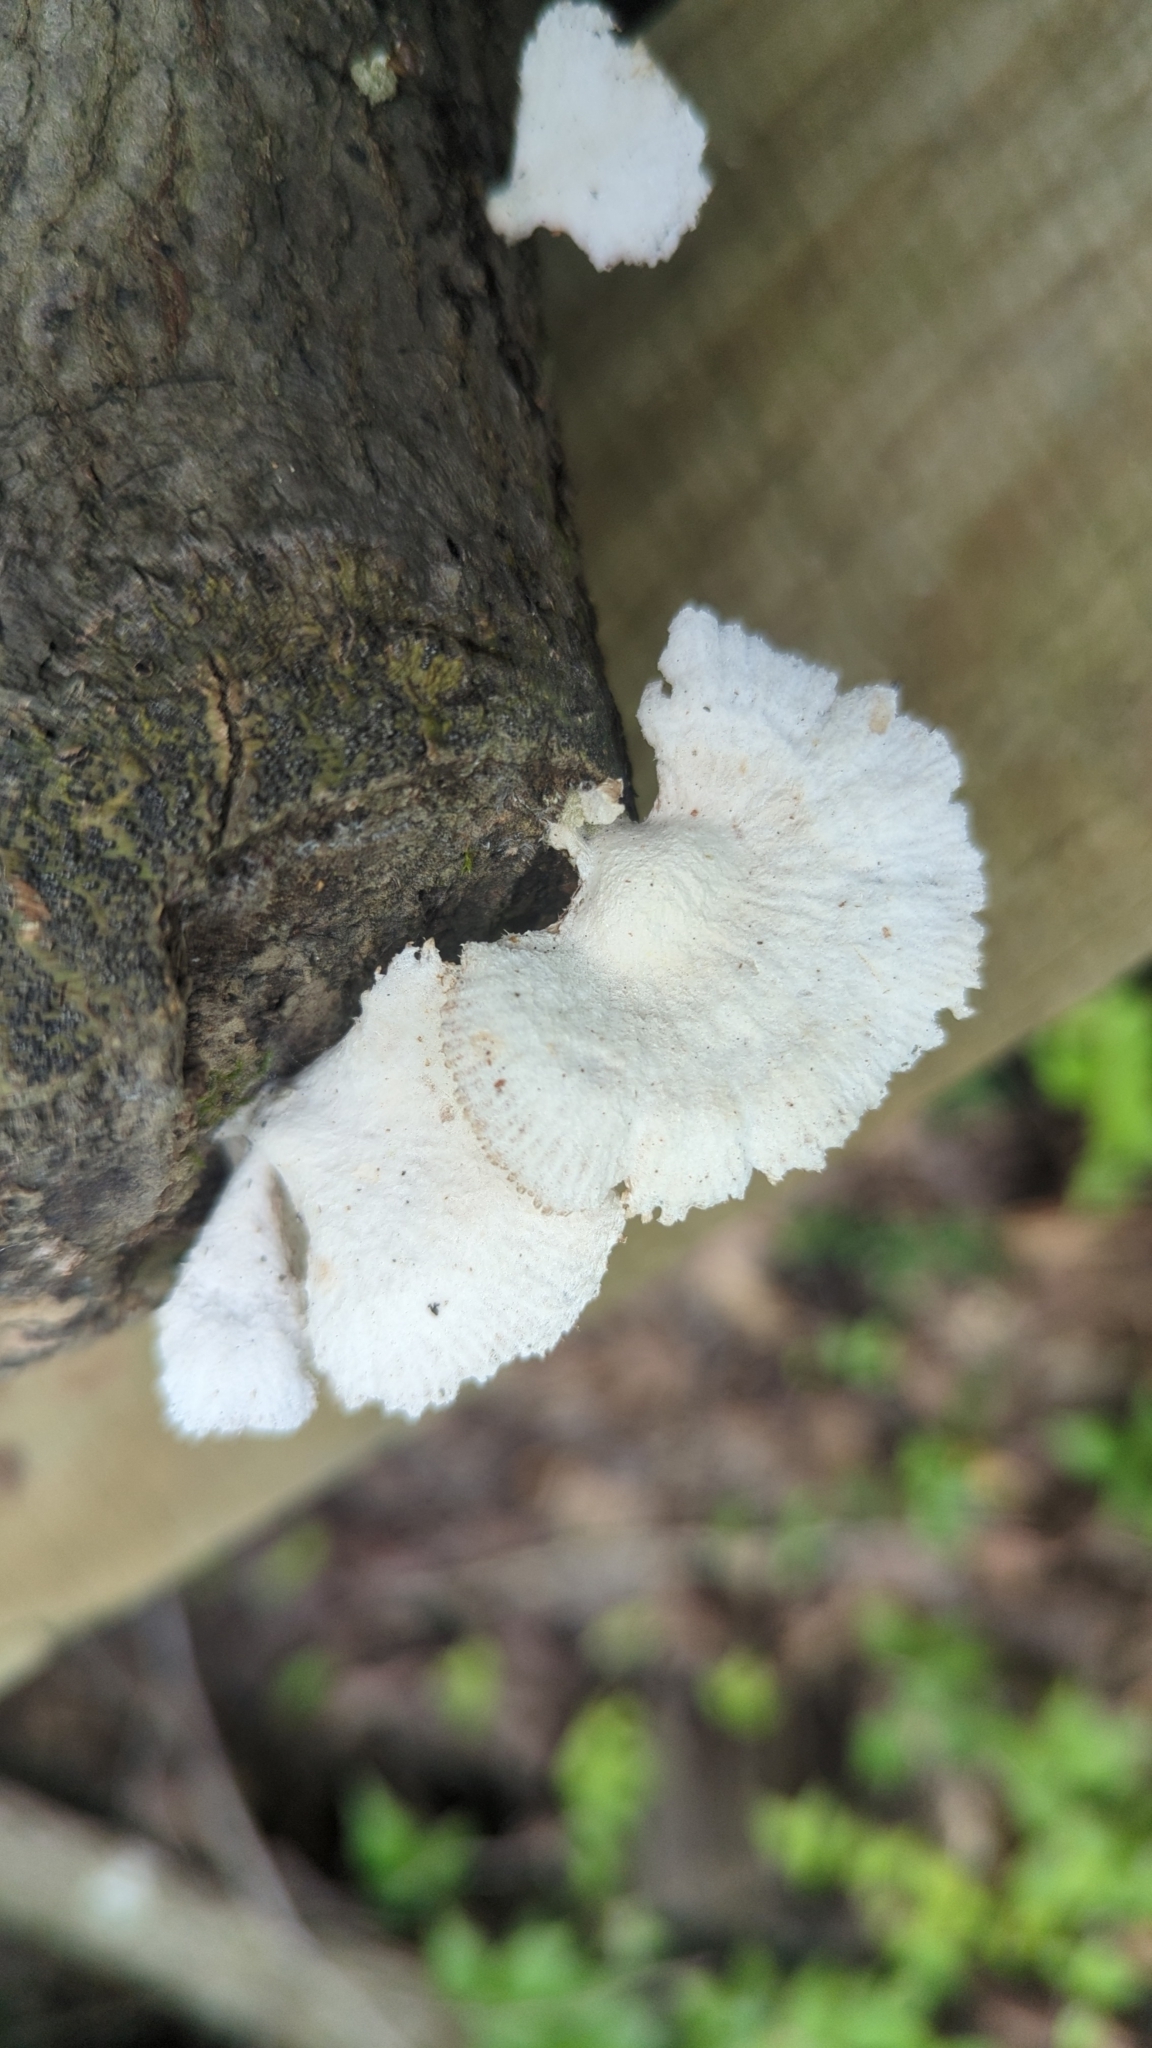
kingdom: Fungi
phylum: Basidiomycota
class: Agaricomycetes
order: Agaricales
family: Schizophyllaceae
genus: Schizophyllum
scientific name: Schizophyllum commune
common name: Common porecrust
